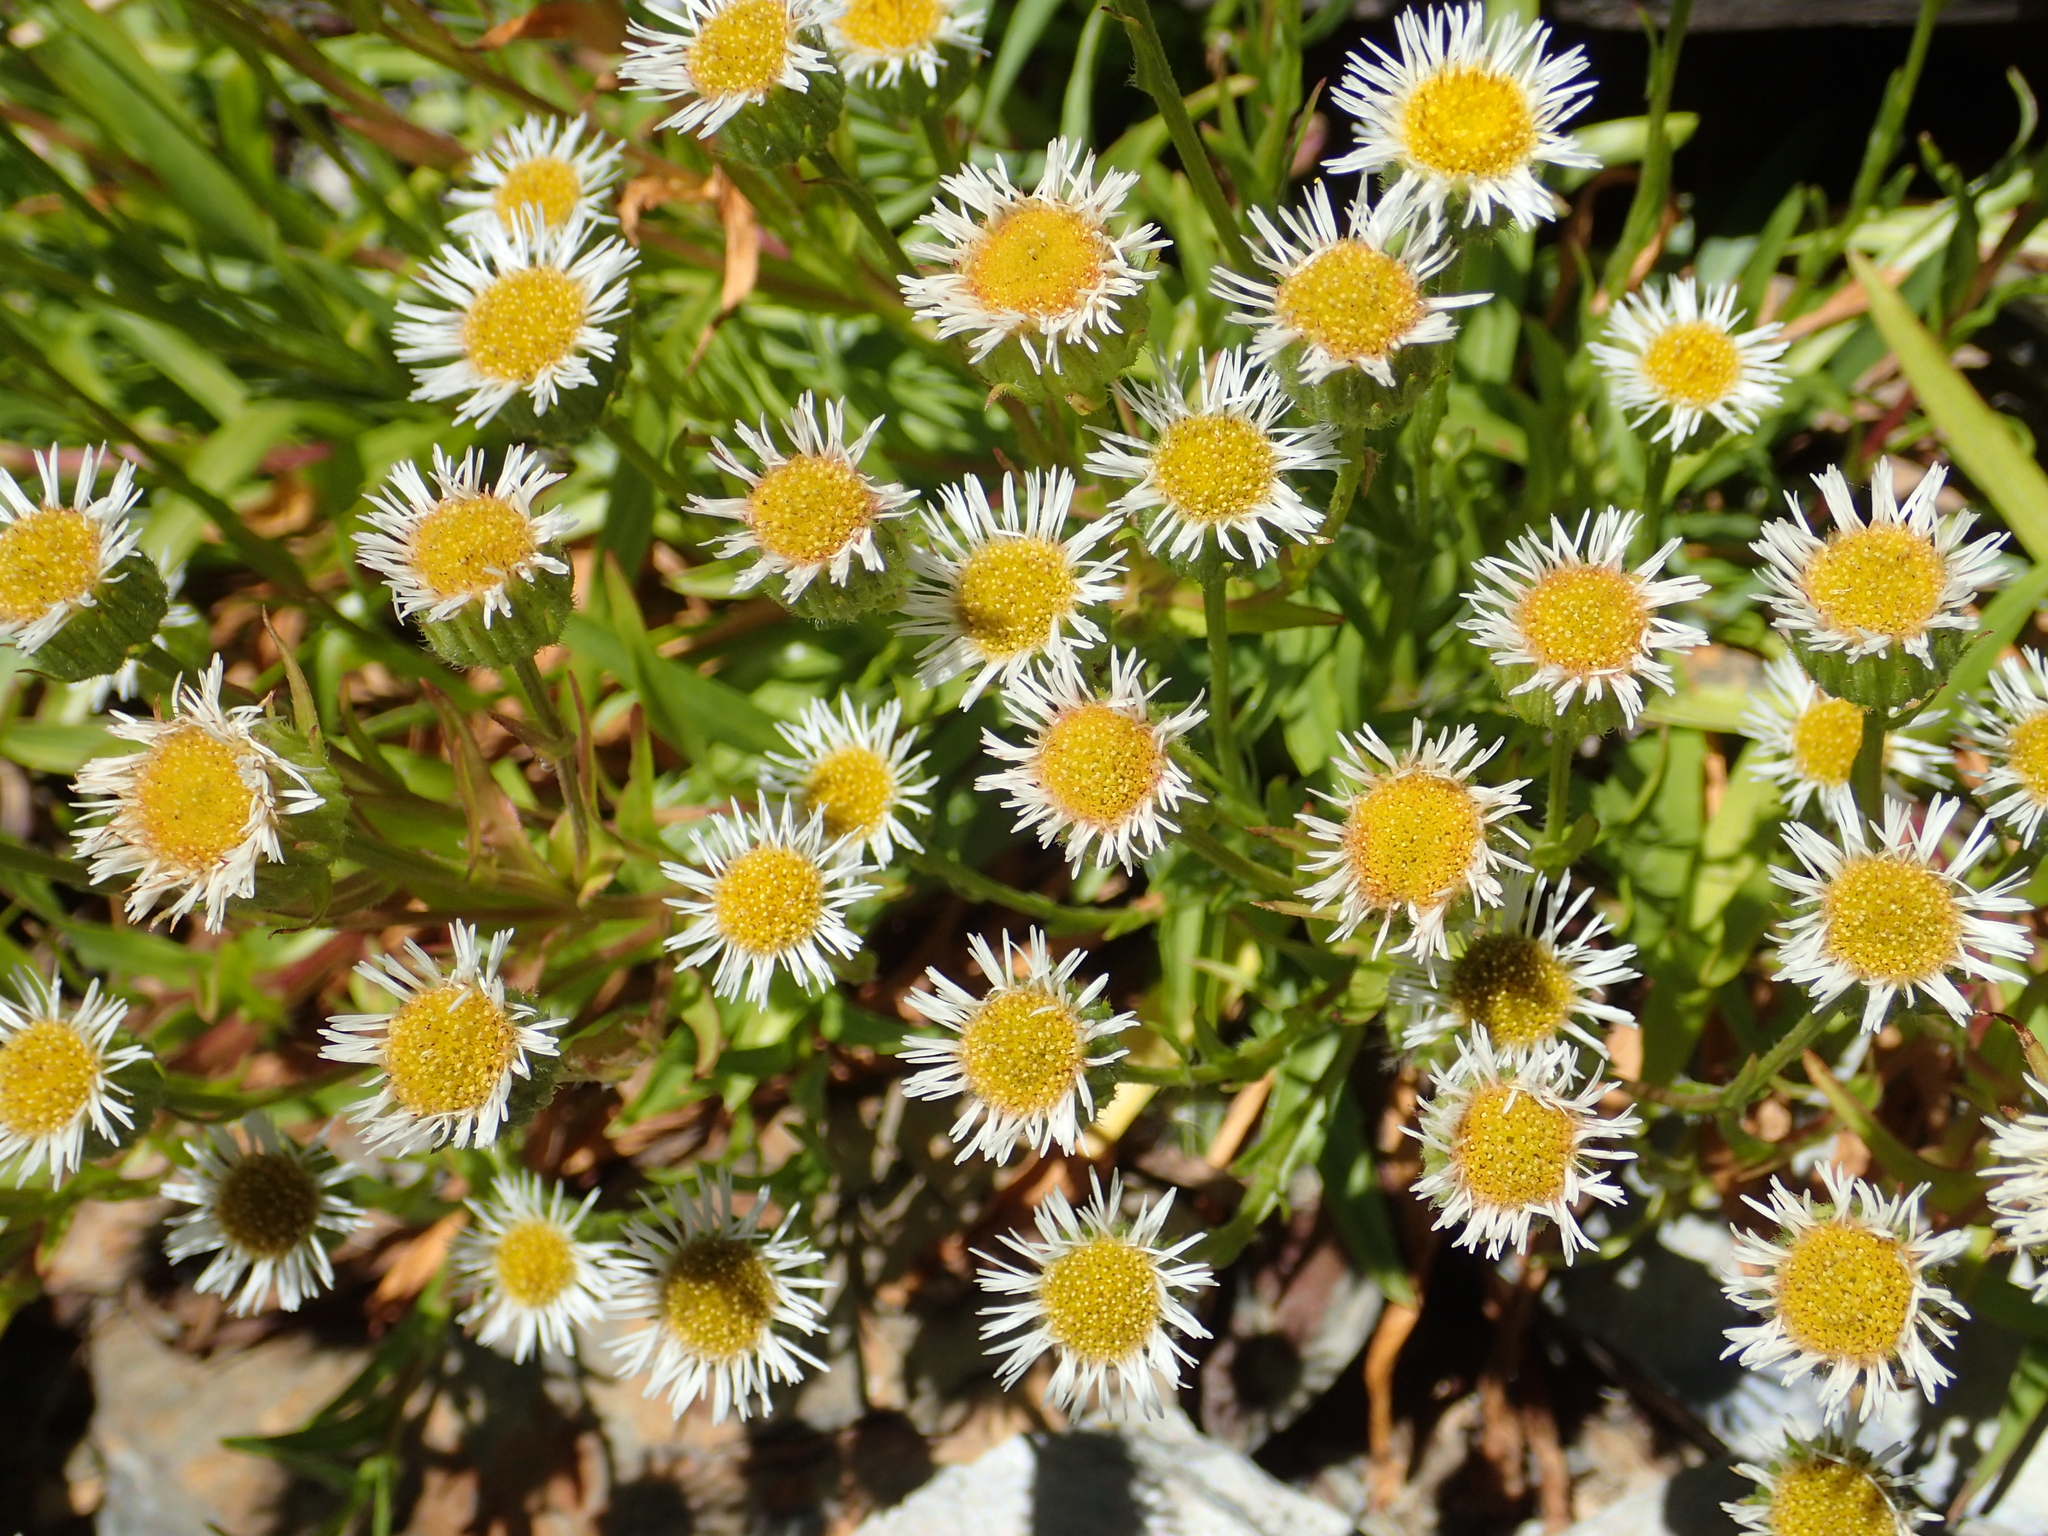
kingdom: Plantae
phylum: Tracheophyta
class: Magnoliopsida
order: Asterales
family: Asteraceae
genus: Erigeron
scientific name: Erigeron morrisonensis
